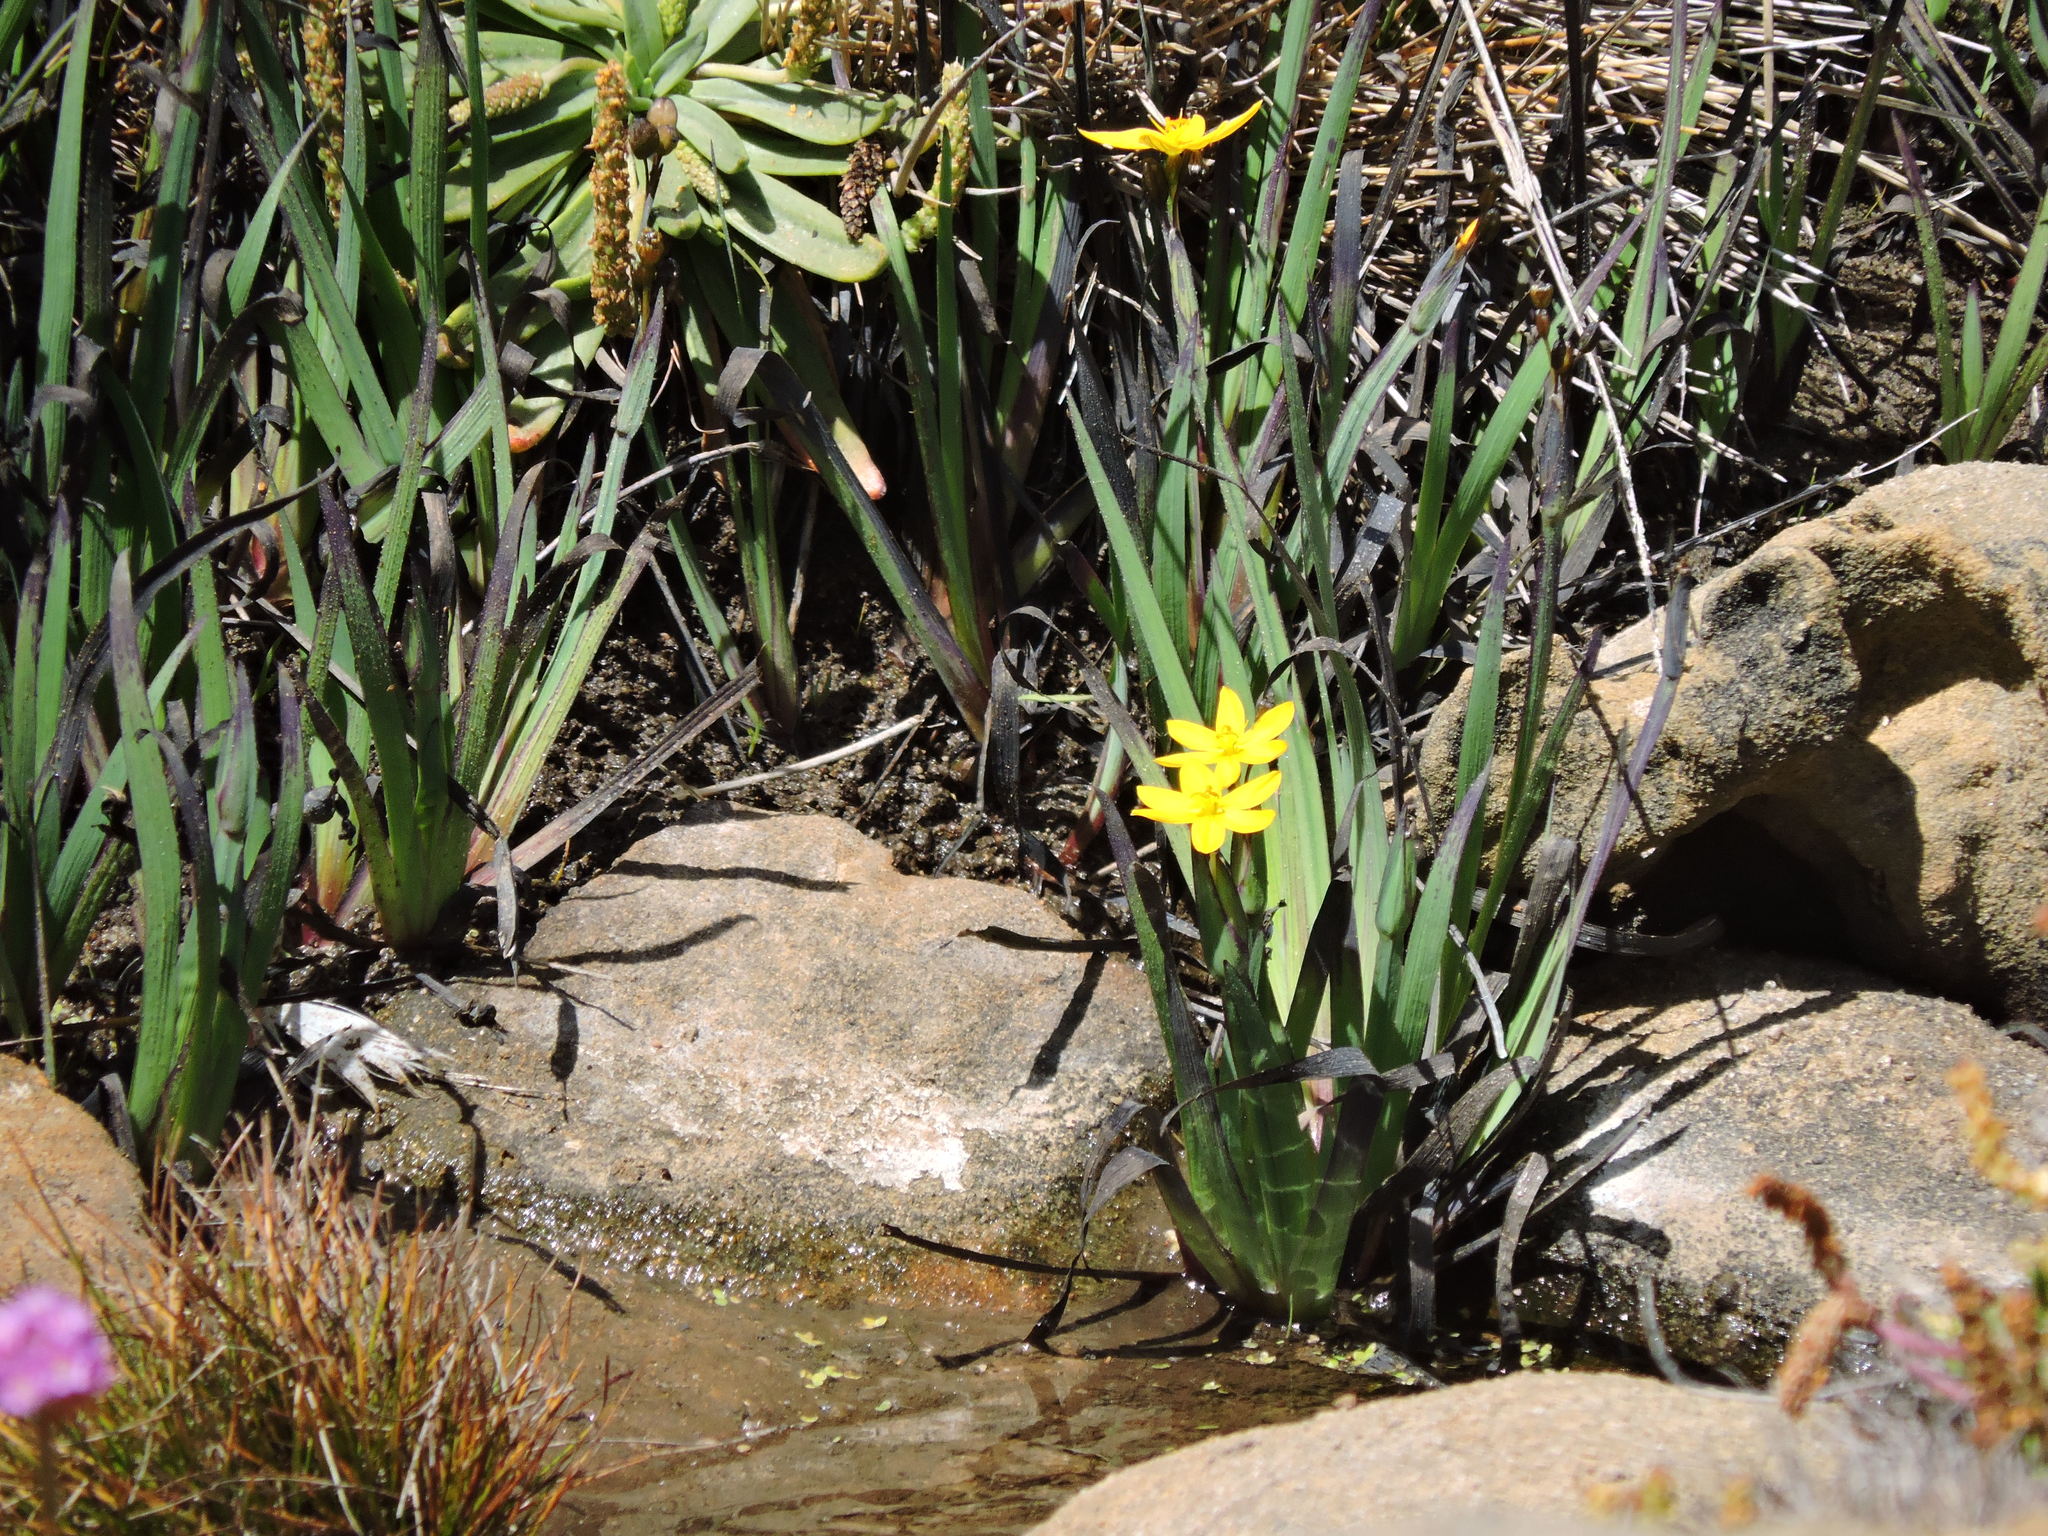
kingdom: Plantae
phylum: Tracheophyta
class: Liliopsida
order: Asparagales
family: Iridaceae
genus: Sisyrinchium
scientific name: Sisyrinchium californicum
